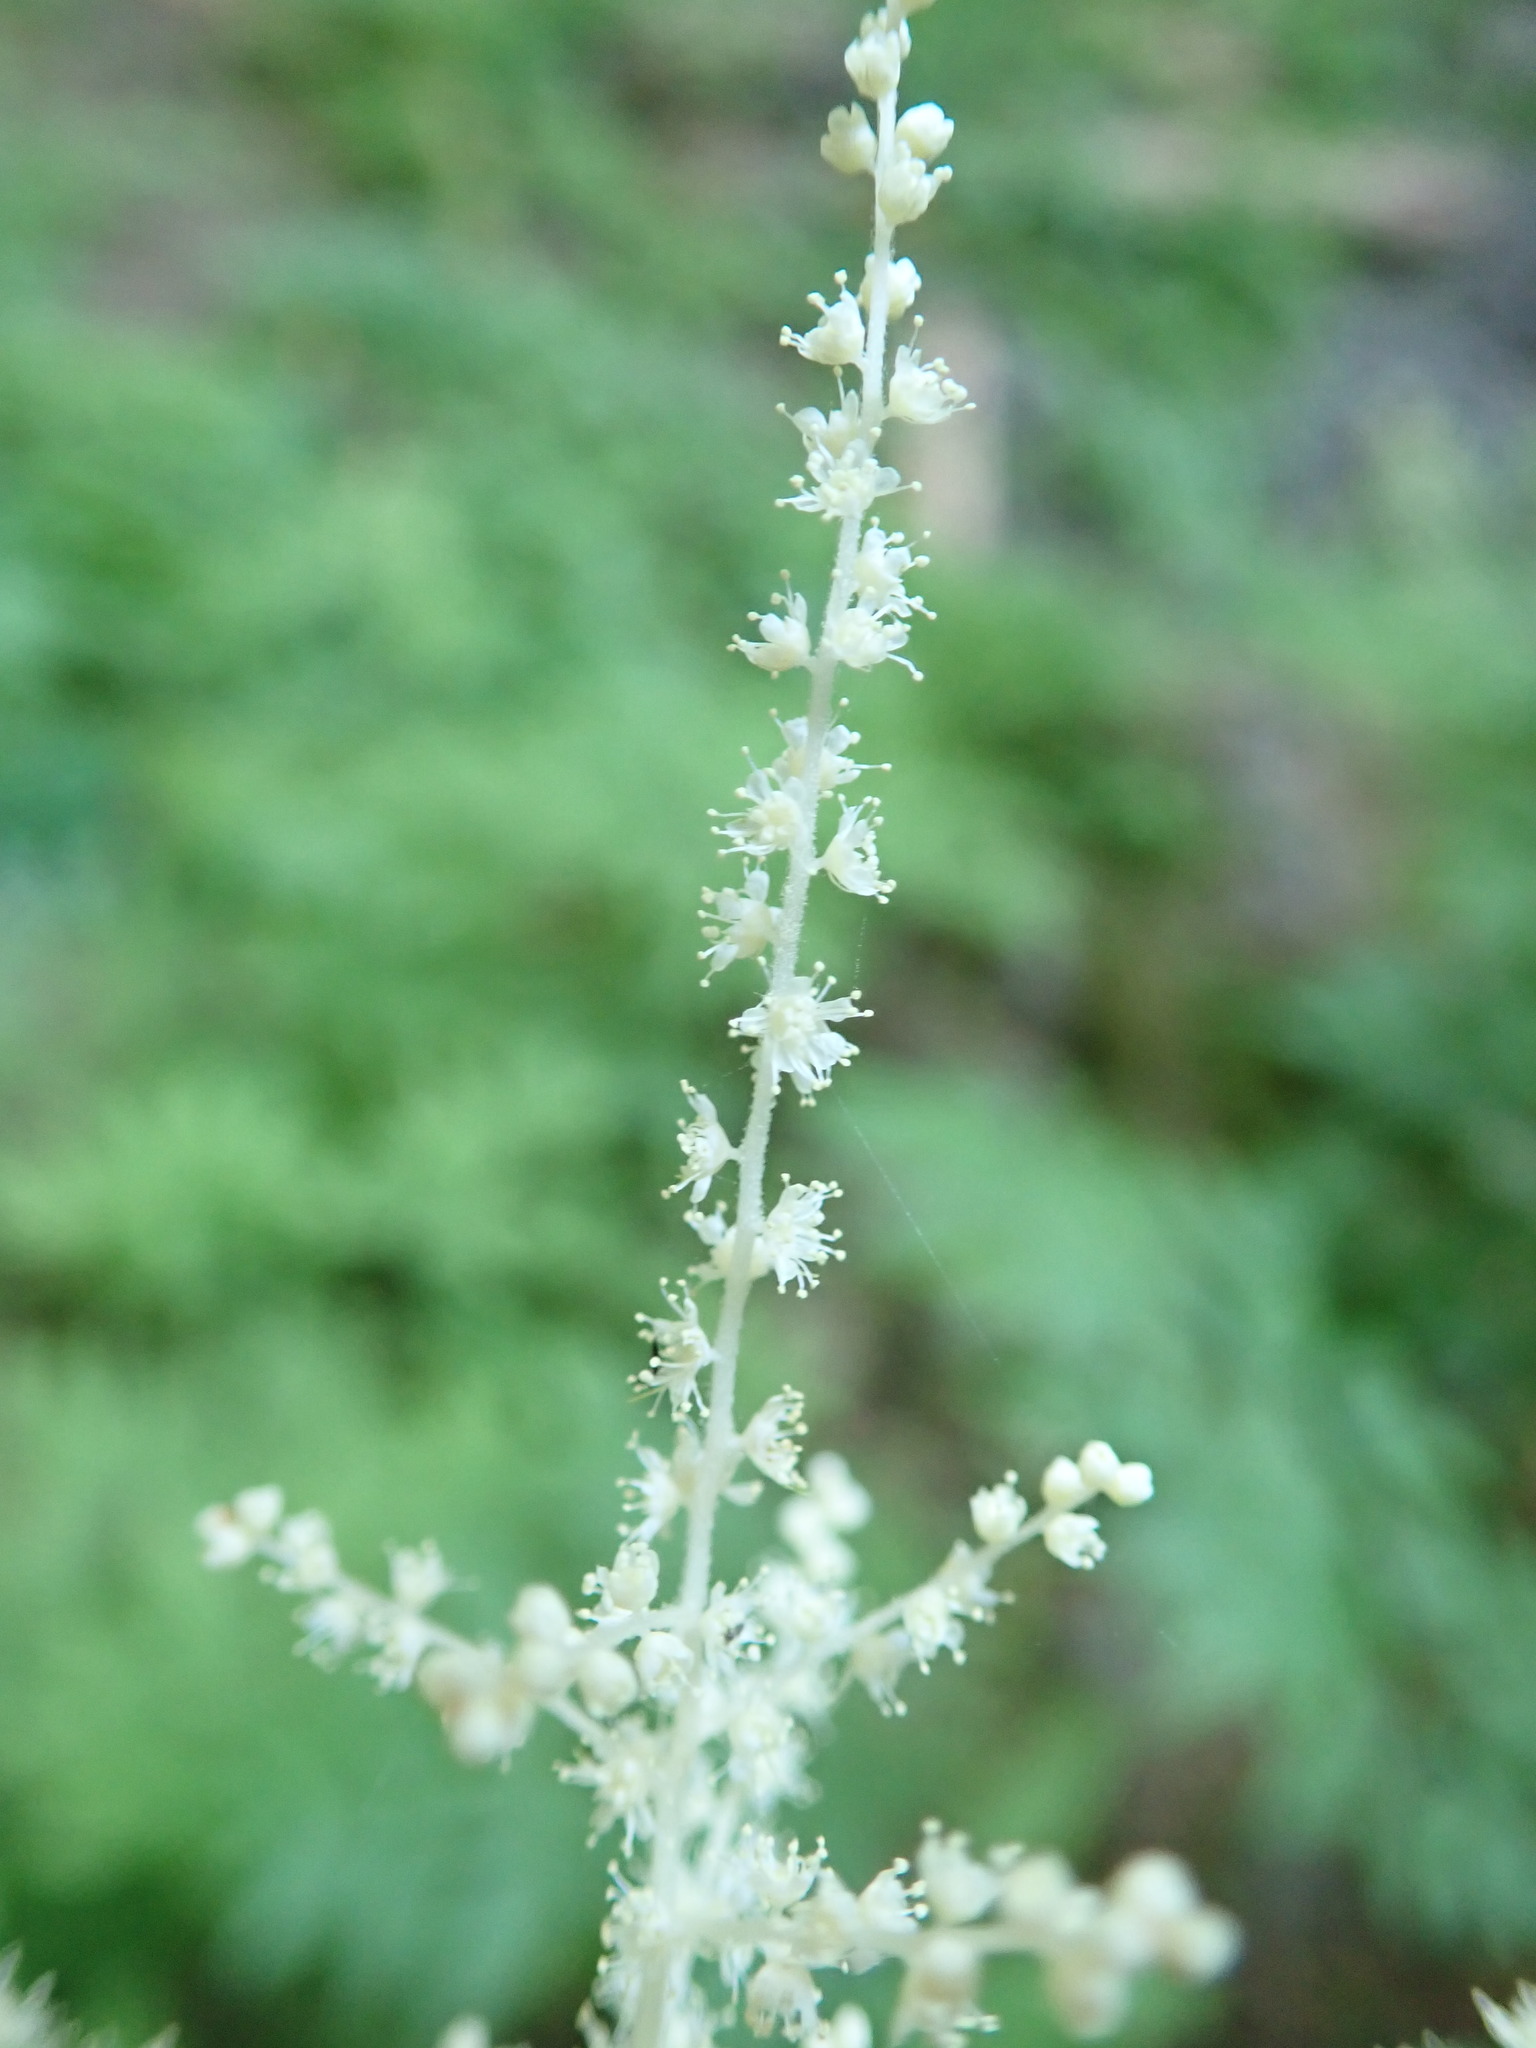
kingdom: Plantae
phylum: Tracheophyta
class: Magnoliopsida
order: Rosales
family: Rosaceae
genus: Aruncus
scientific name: Aruncus dioicus
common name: Buck's-beard
